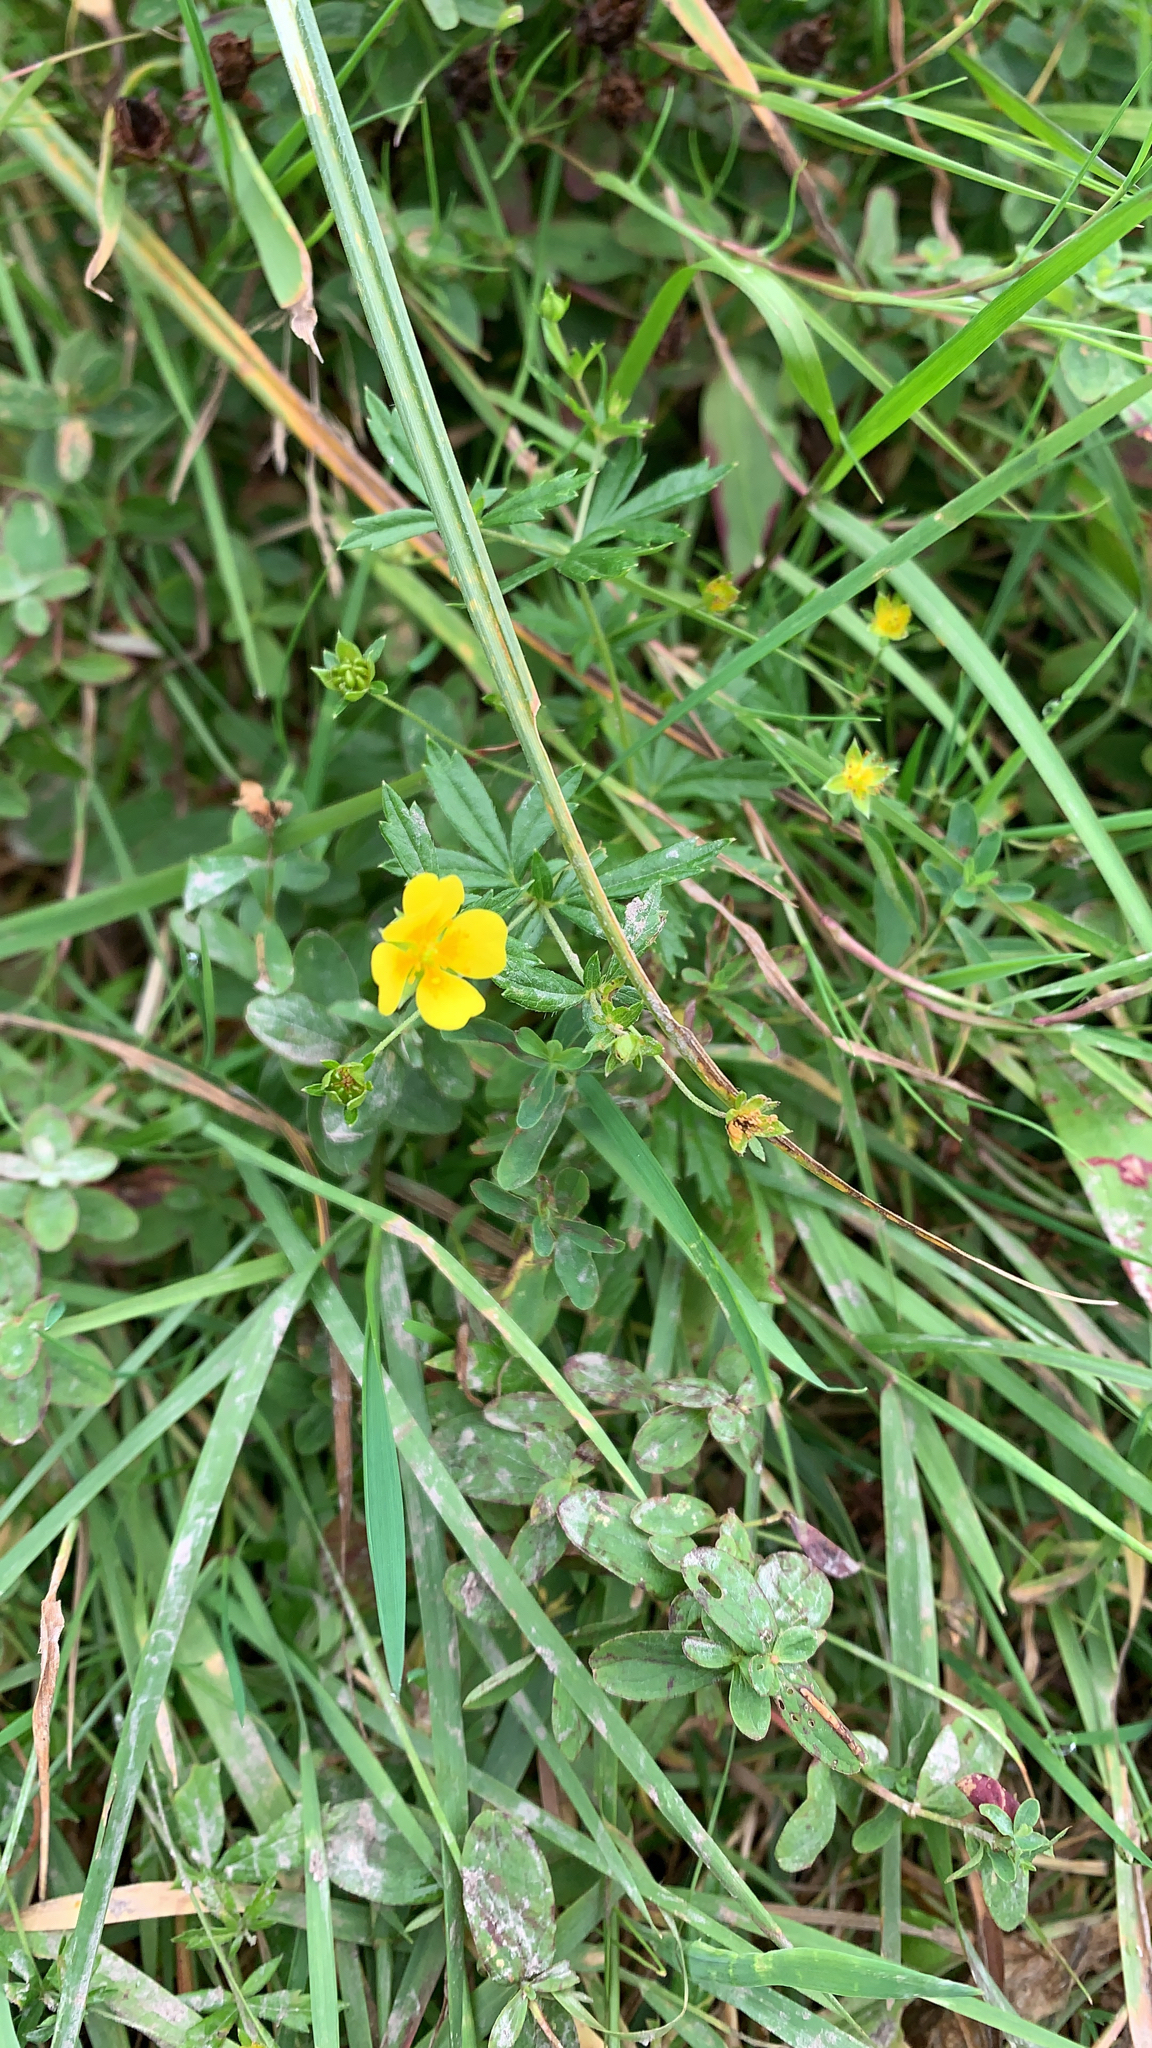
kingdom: Plantae
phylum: Tracheophyta
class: Magnoliopsida
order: Rosales
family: Rosaceae
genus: Potentilla
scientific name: Potentilla erecta
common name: Tormentil
